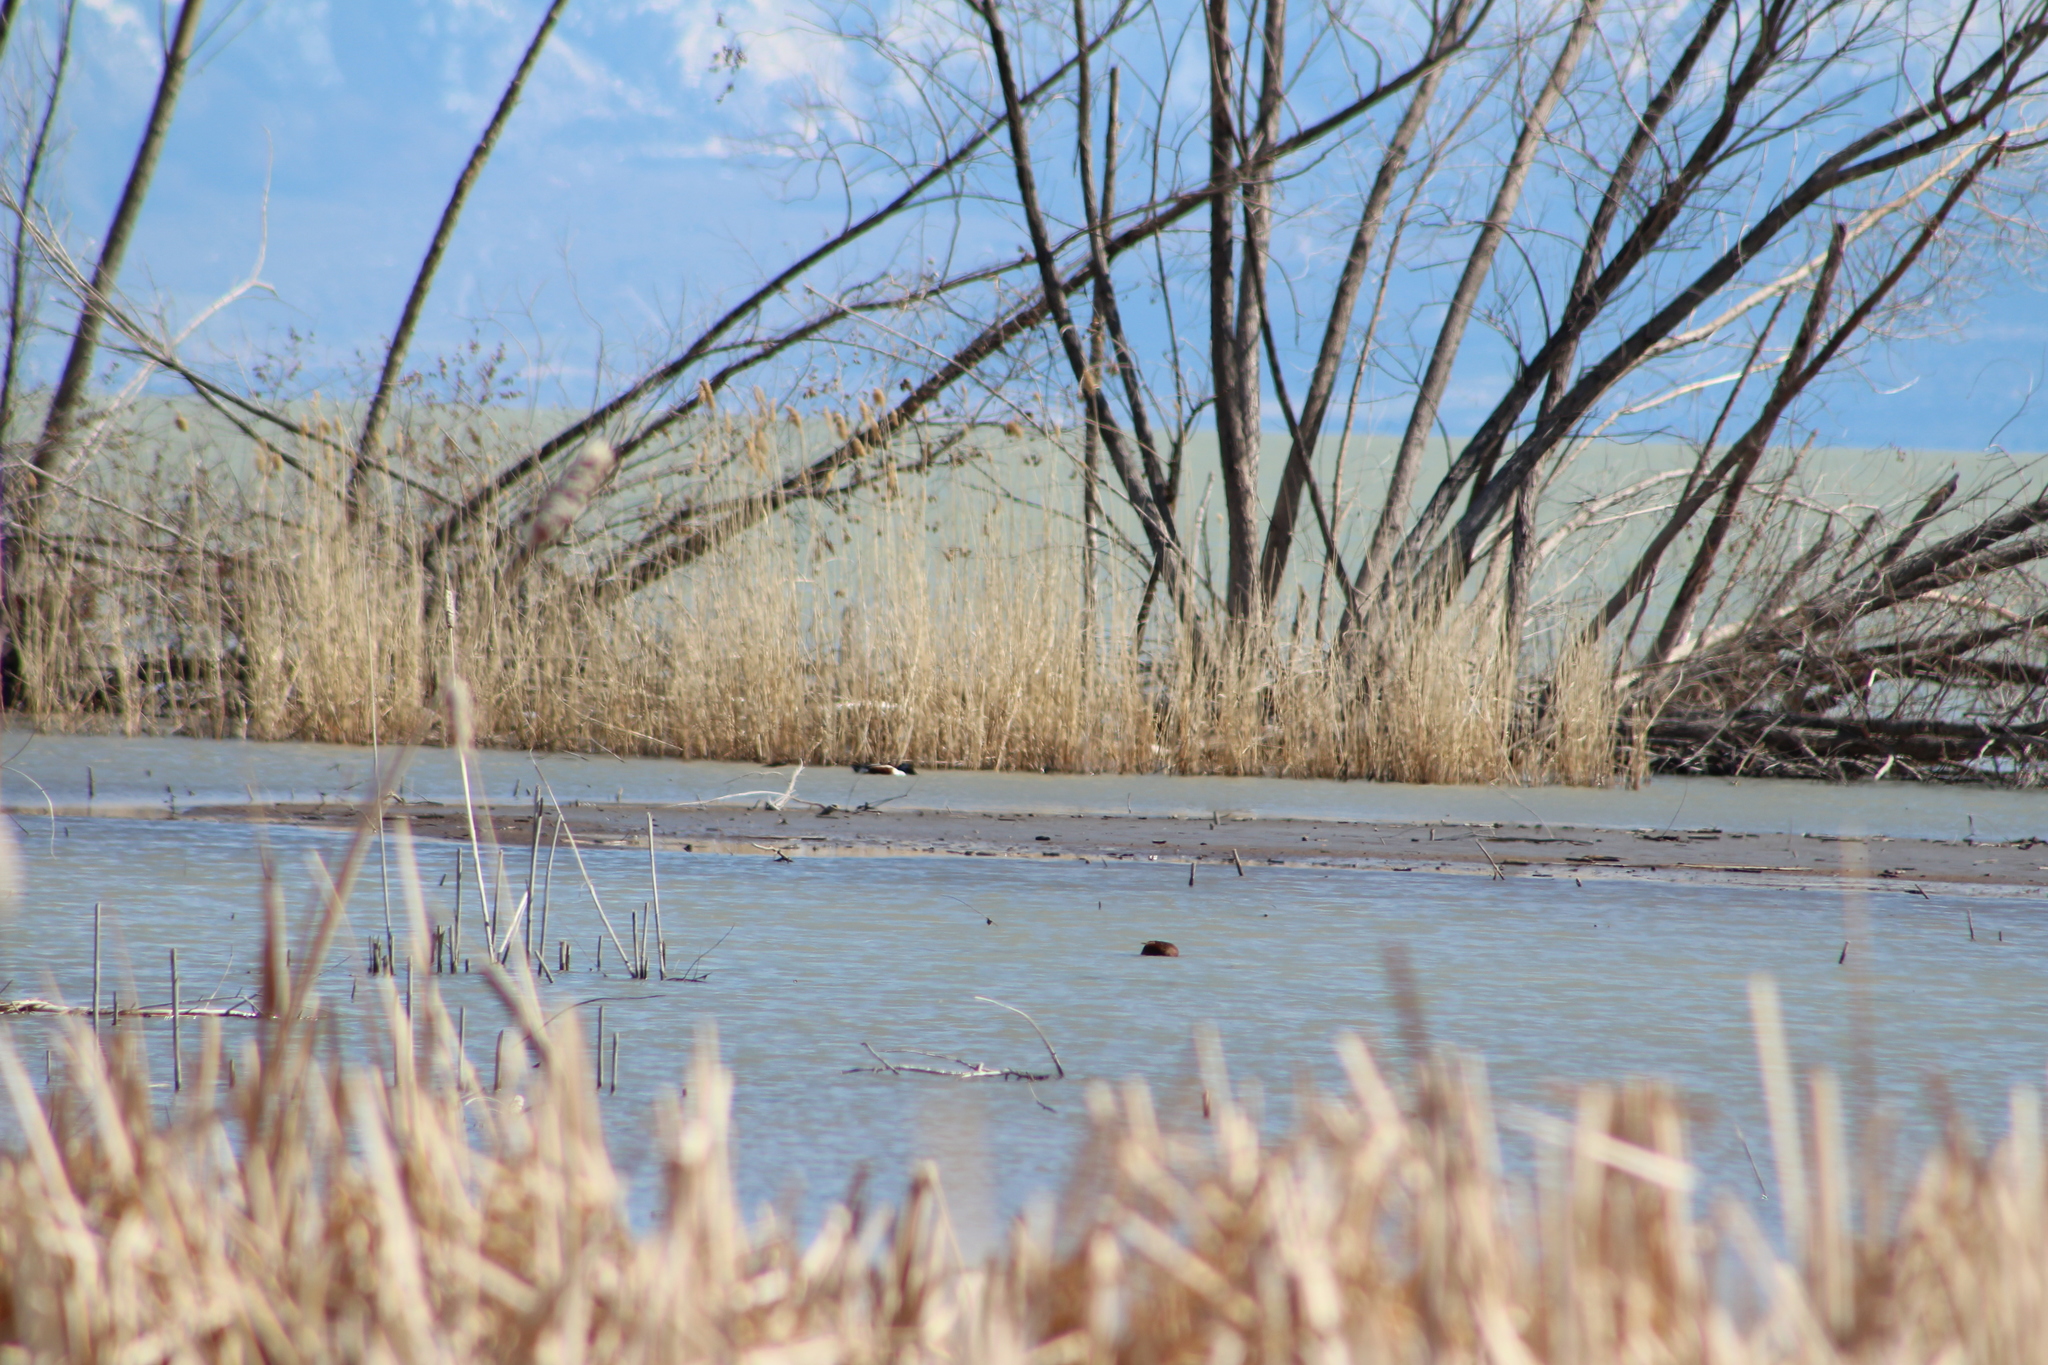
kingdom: Animalia
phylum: Chordata
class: Aves
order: Anseriformes
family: Anatidae
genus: Spatula
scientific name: Spatula cyanoptera
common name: Cinnamon teal
